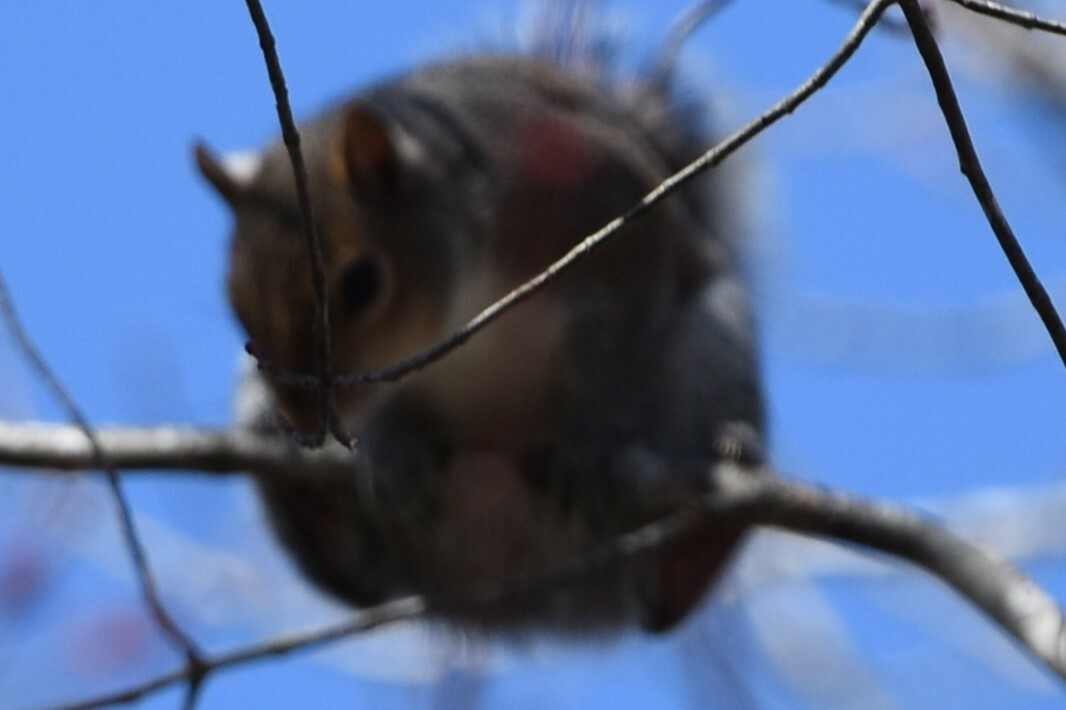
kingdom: Animalia
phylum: Chordata
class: Mammalia
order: Rodentia
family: Sciuridae
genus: Sciurus
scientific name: Sciurus carolinensis
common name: Eastern gray squirrel
